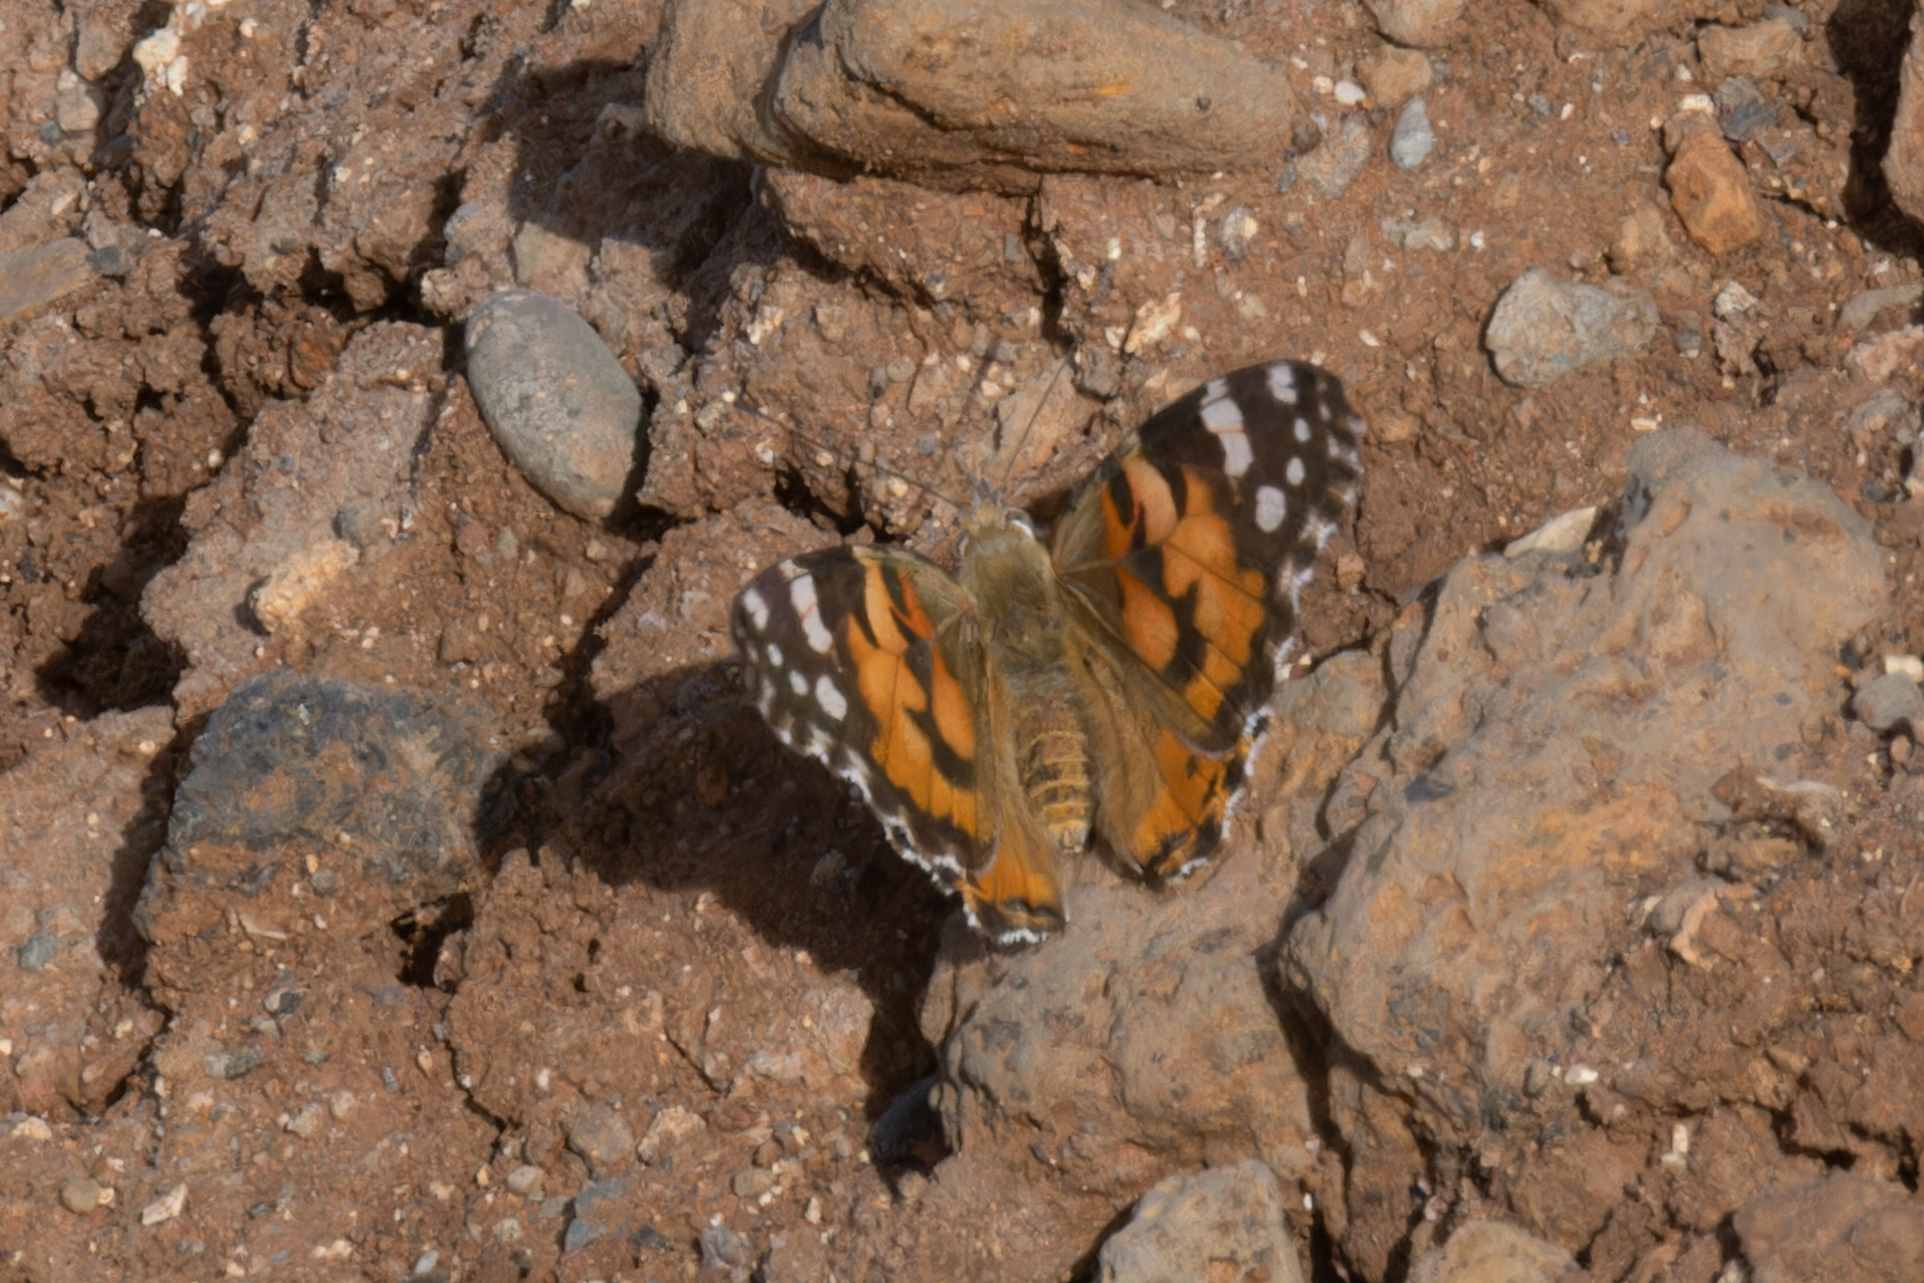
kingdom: Animalia
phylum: Arthropoda
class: Insecta
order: Lepidoptera
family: Nymphalidae
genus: Vanessa
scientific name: Vanessa cardui
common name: Painted lady
